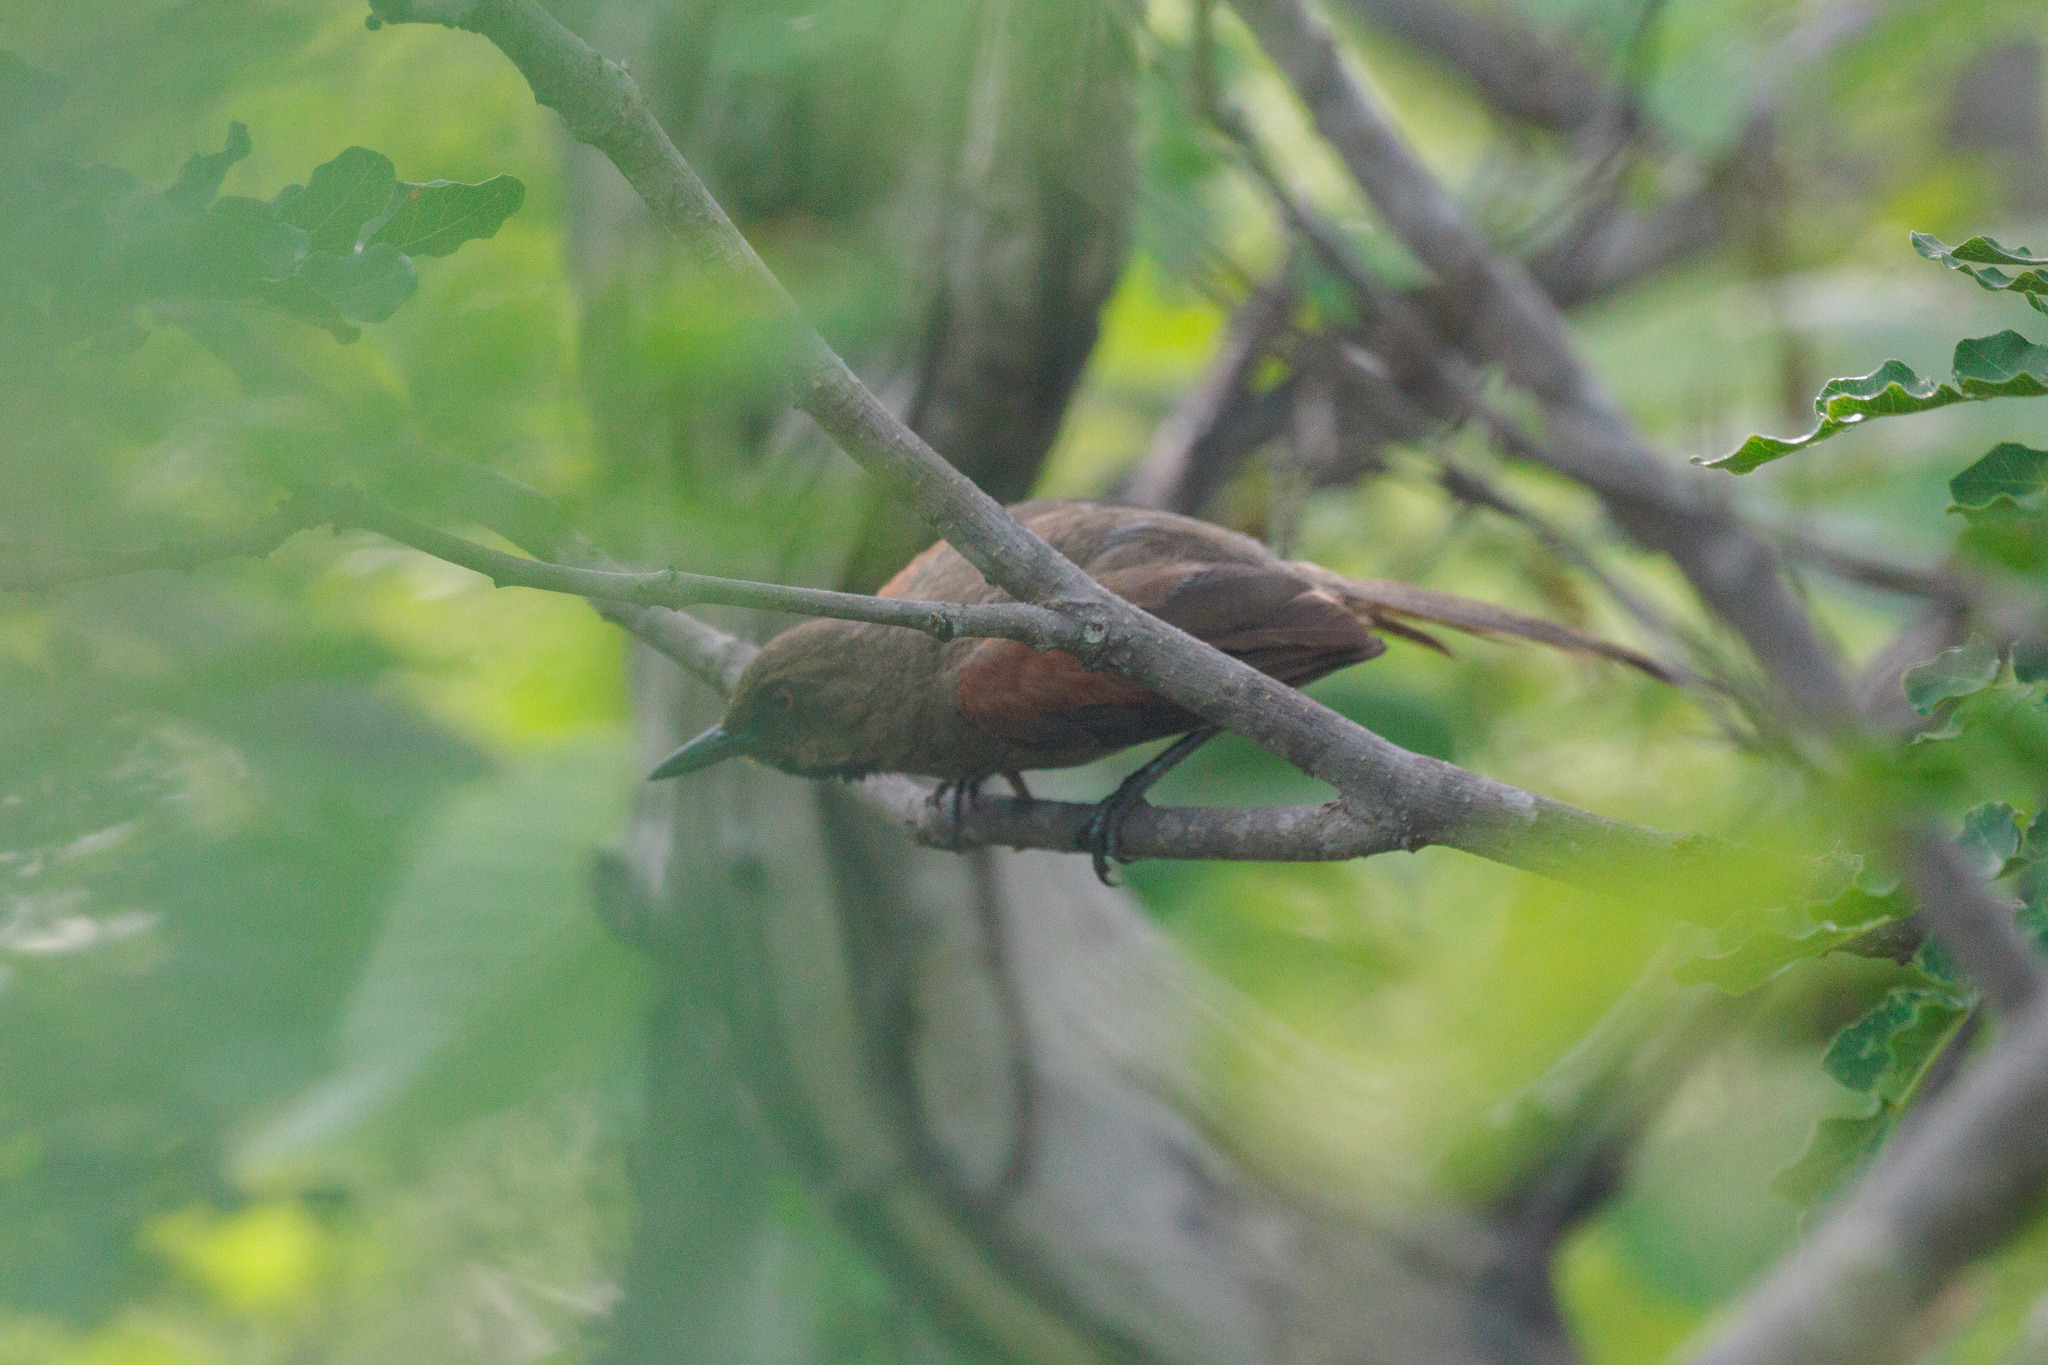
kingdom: Animalia
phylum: Chordata
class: Aves
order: Passeriformes
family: Furnariidae
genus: Gyalophylax
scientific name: Gyalophylax hellmayri
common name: Red-shouldered spinetail
